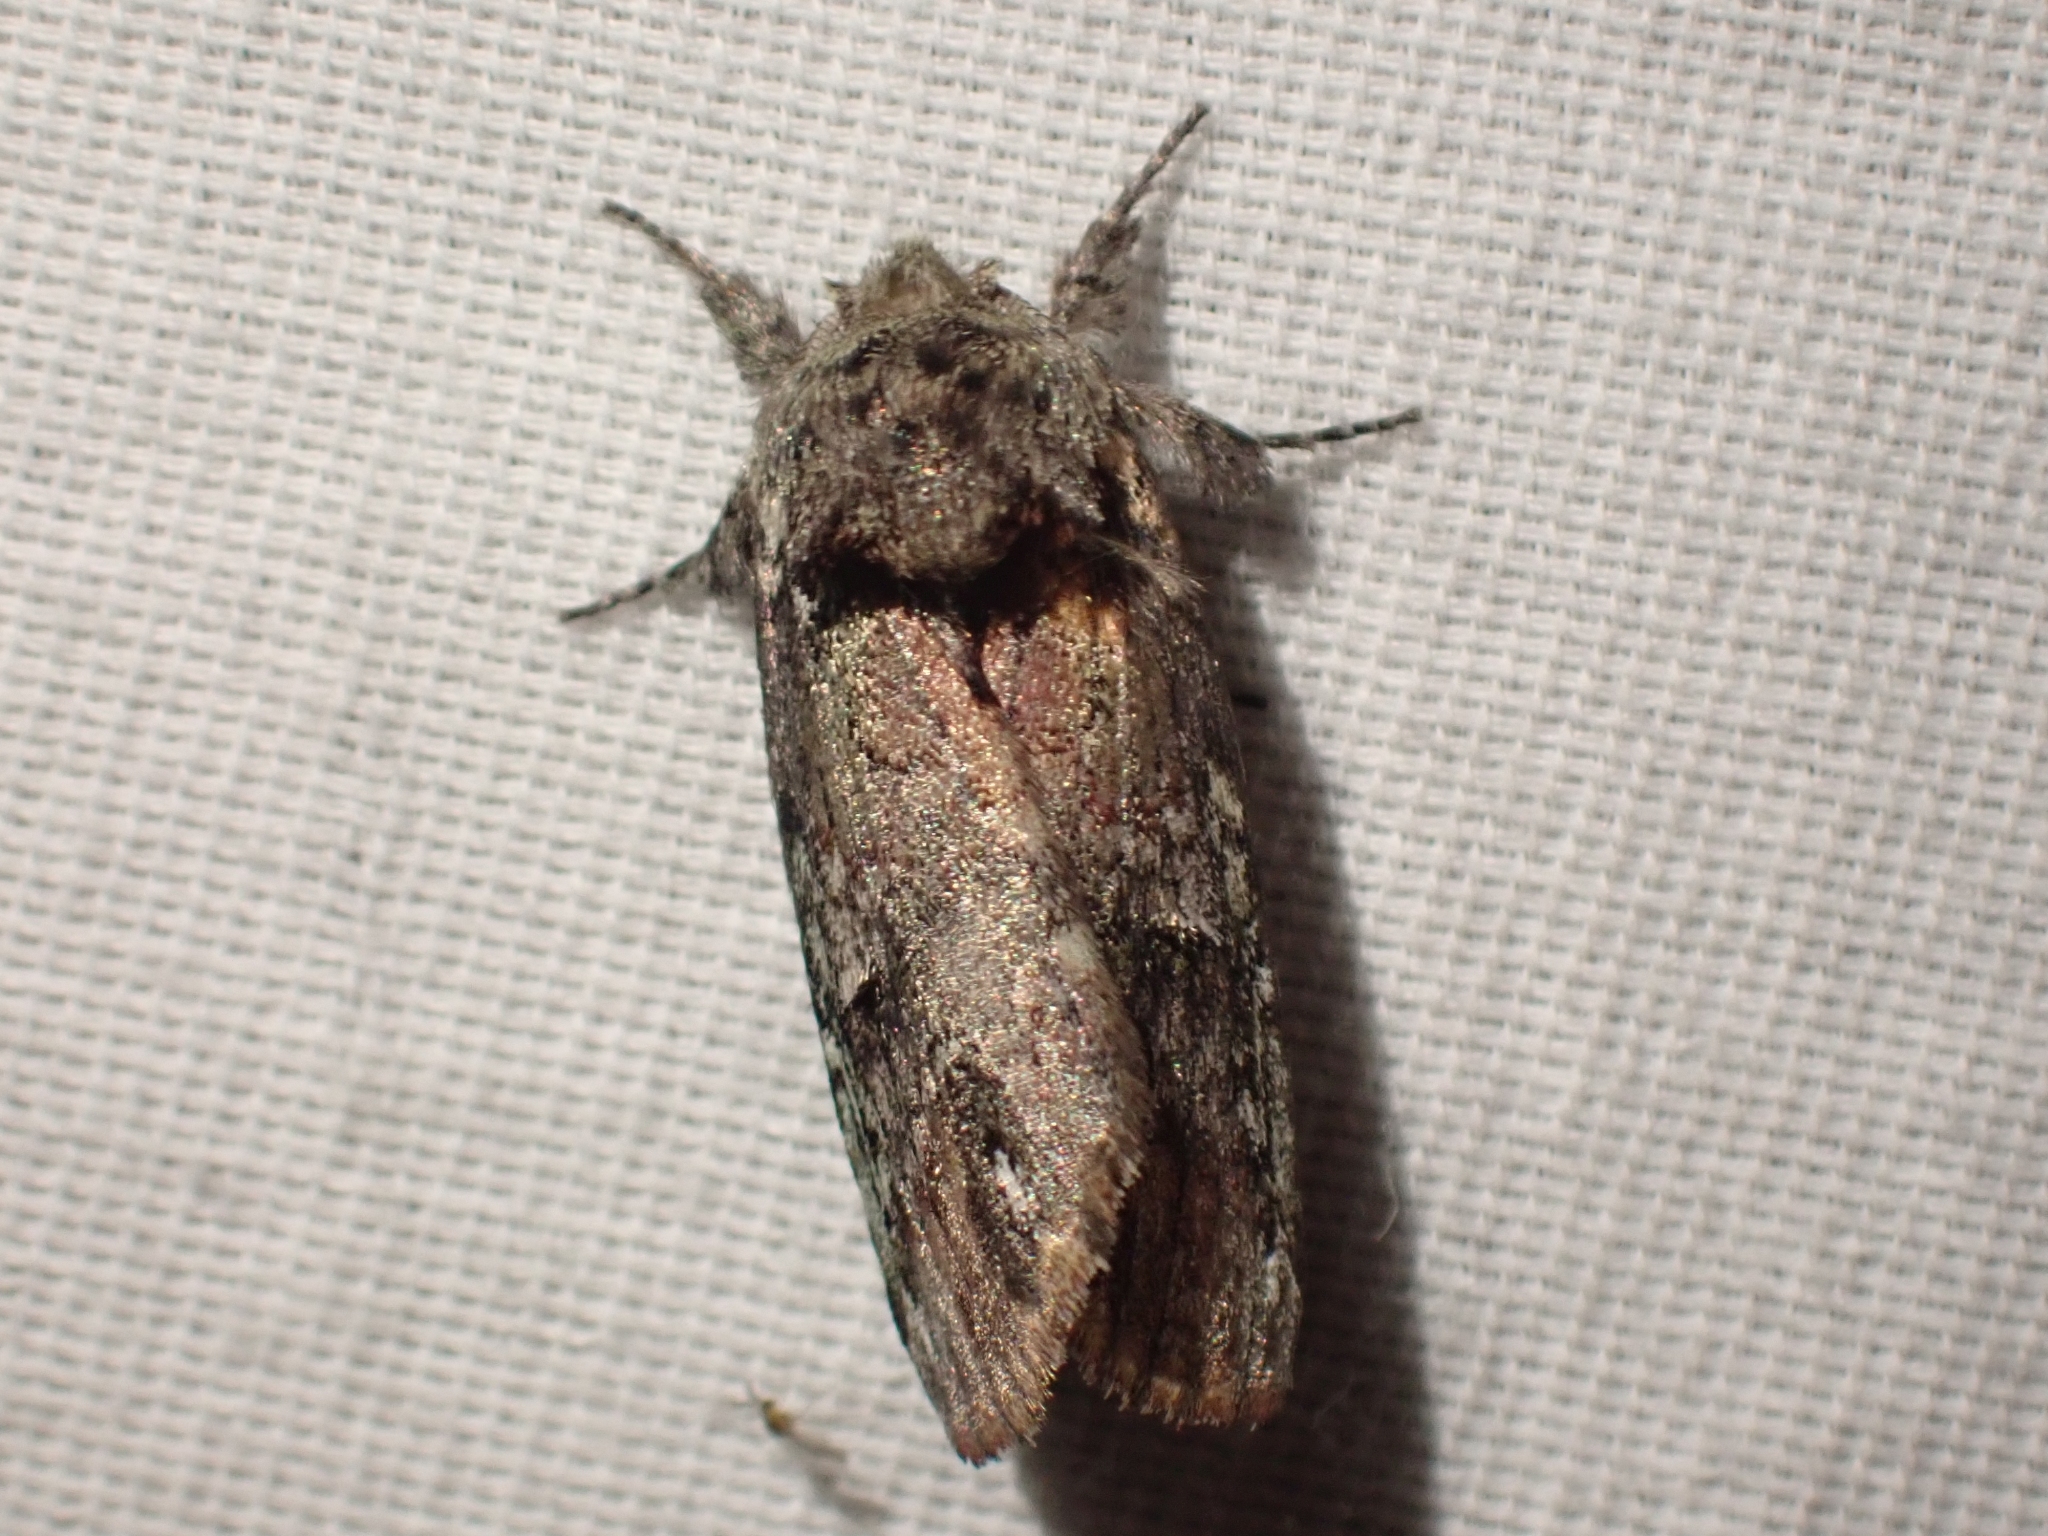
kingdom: Animalia
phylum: Arthropoda
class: Insecta
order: Lepidoptera
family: Notodontidae
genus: Schizura
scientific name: Schizura
